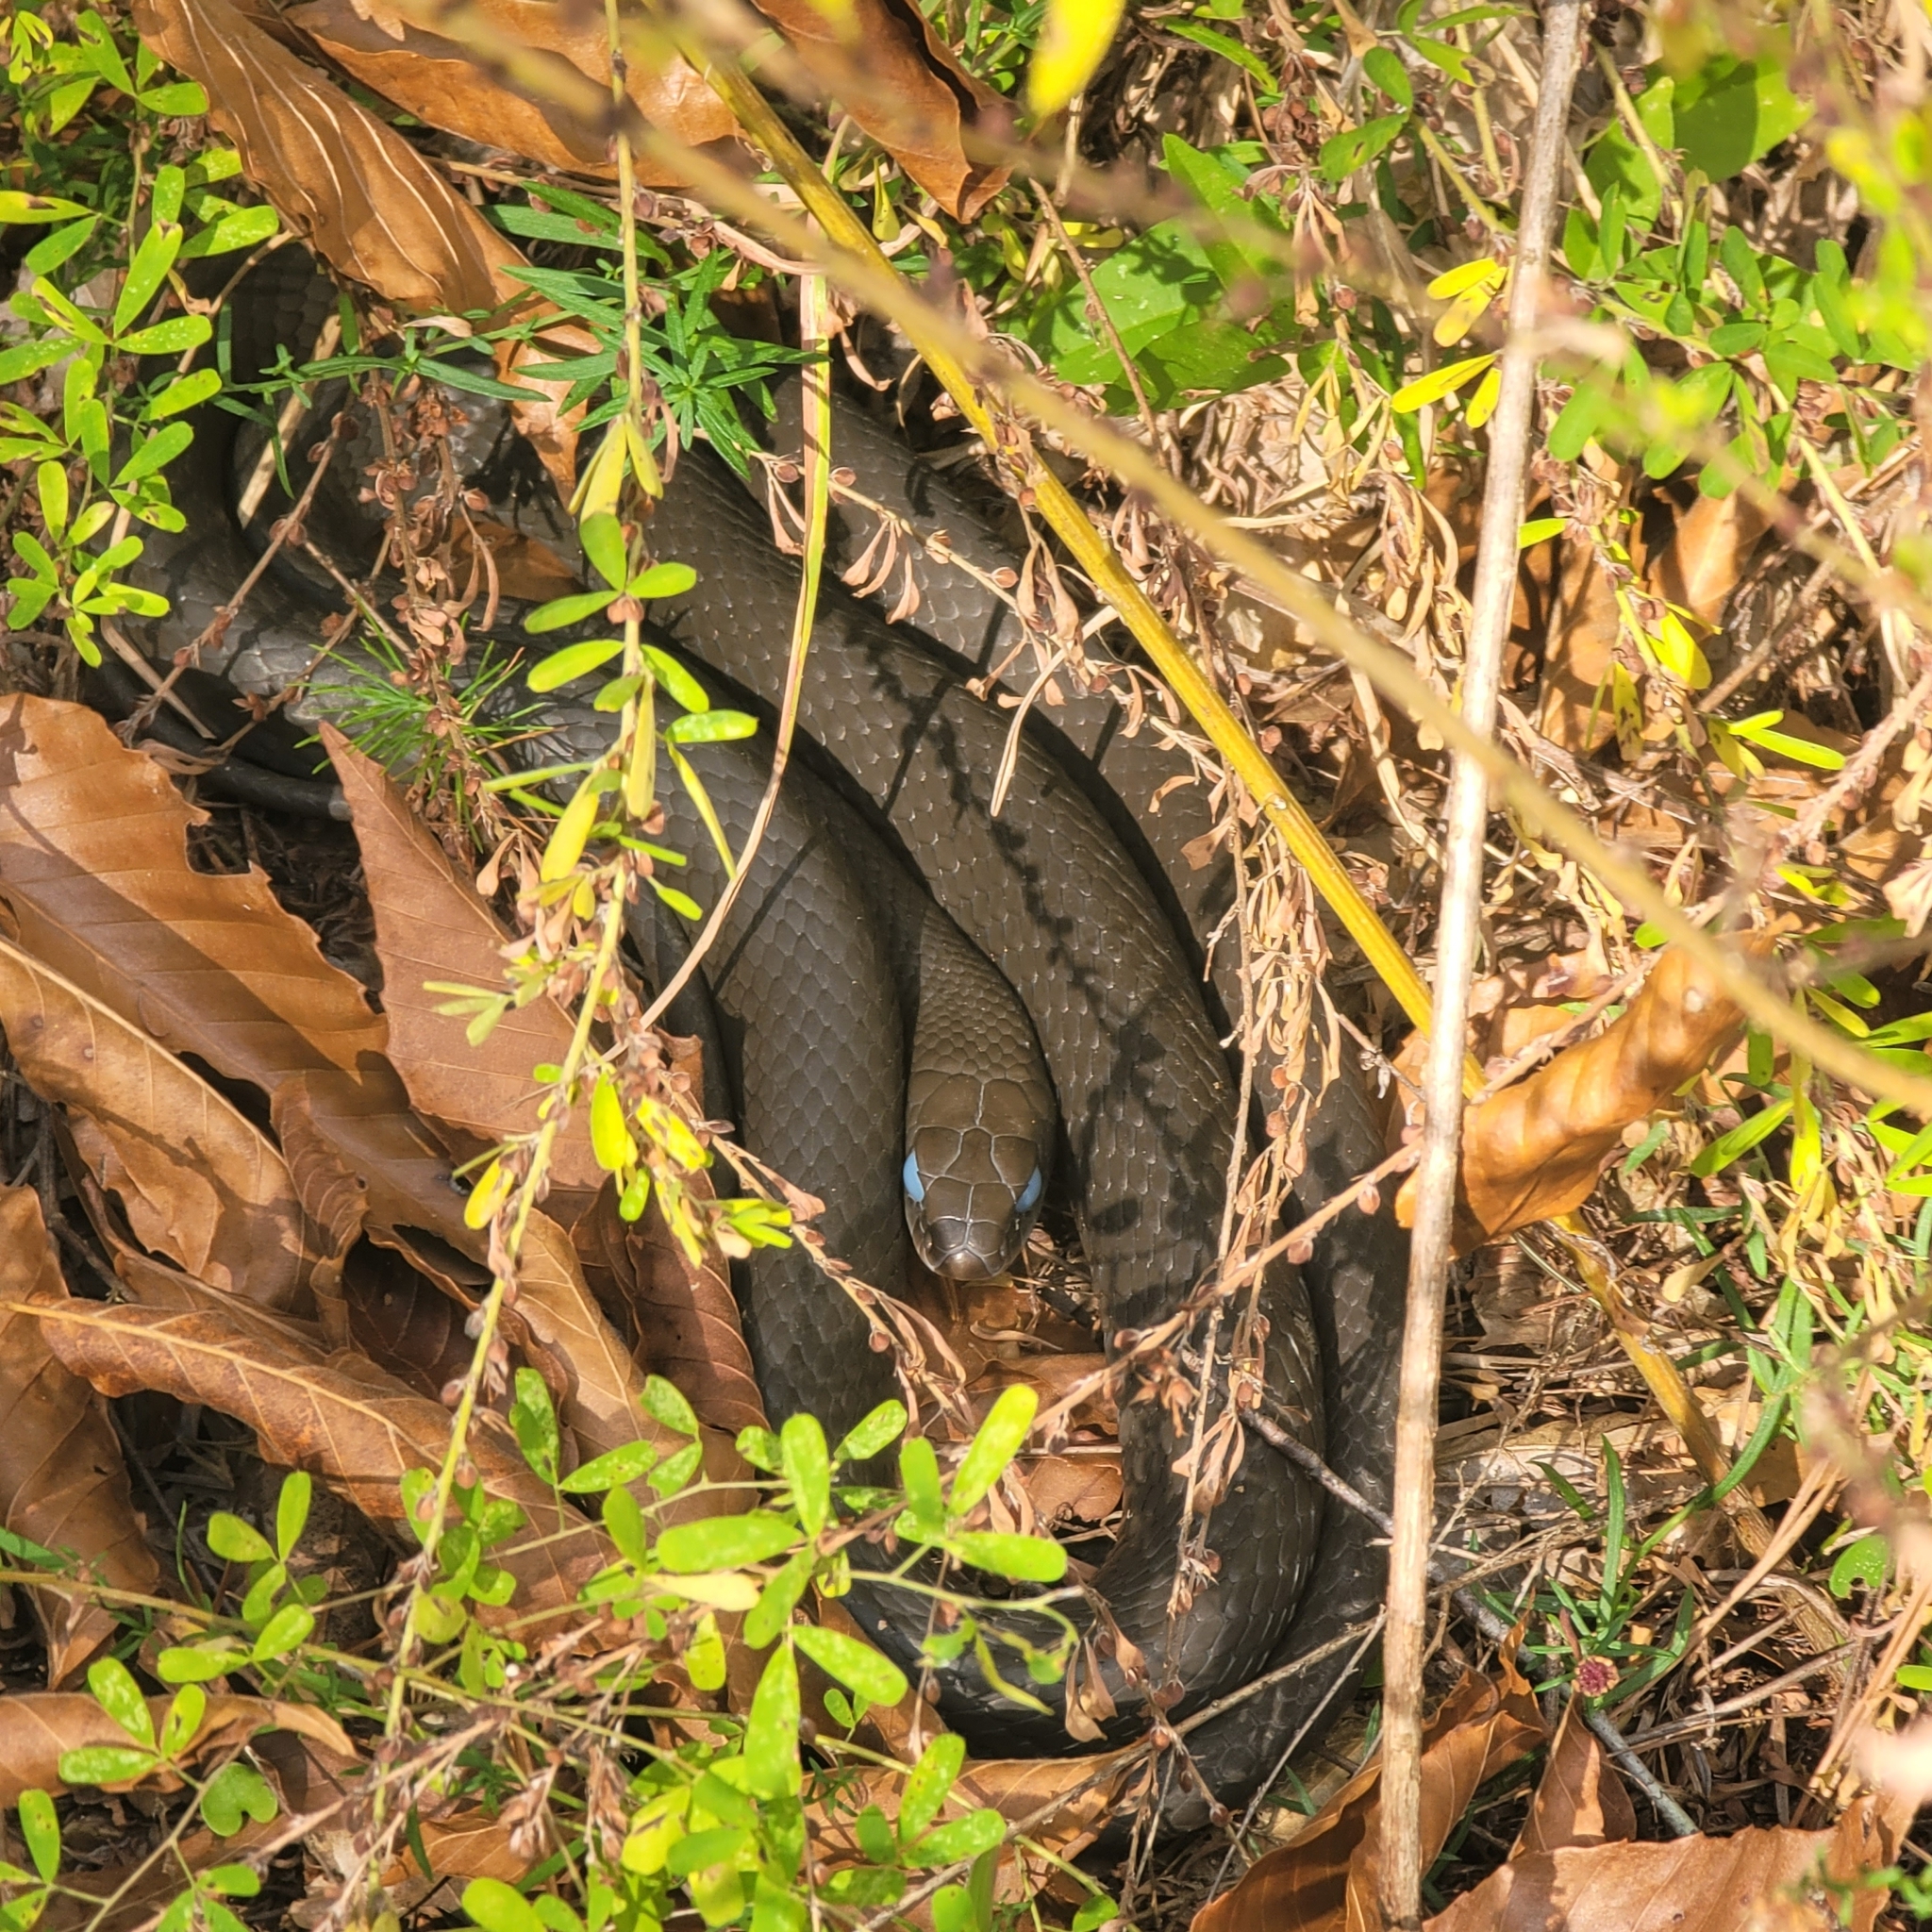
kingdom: Animalia
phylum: Chordata
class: Squamata
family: Colubridae
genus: Coluber
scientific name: Coluber constrictor
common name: Eastern racer
